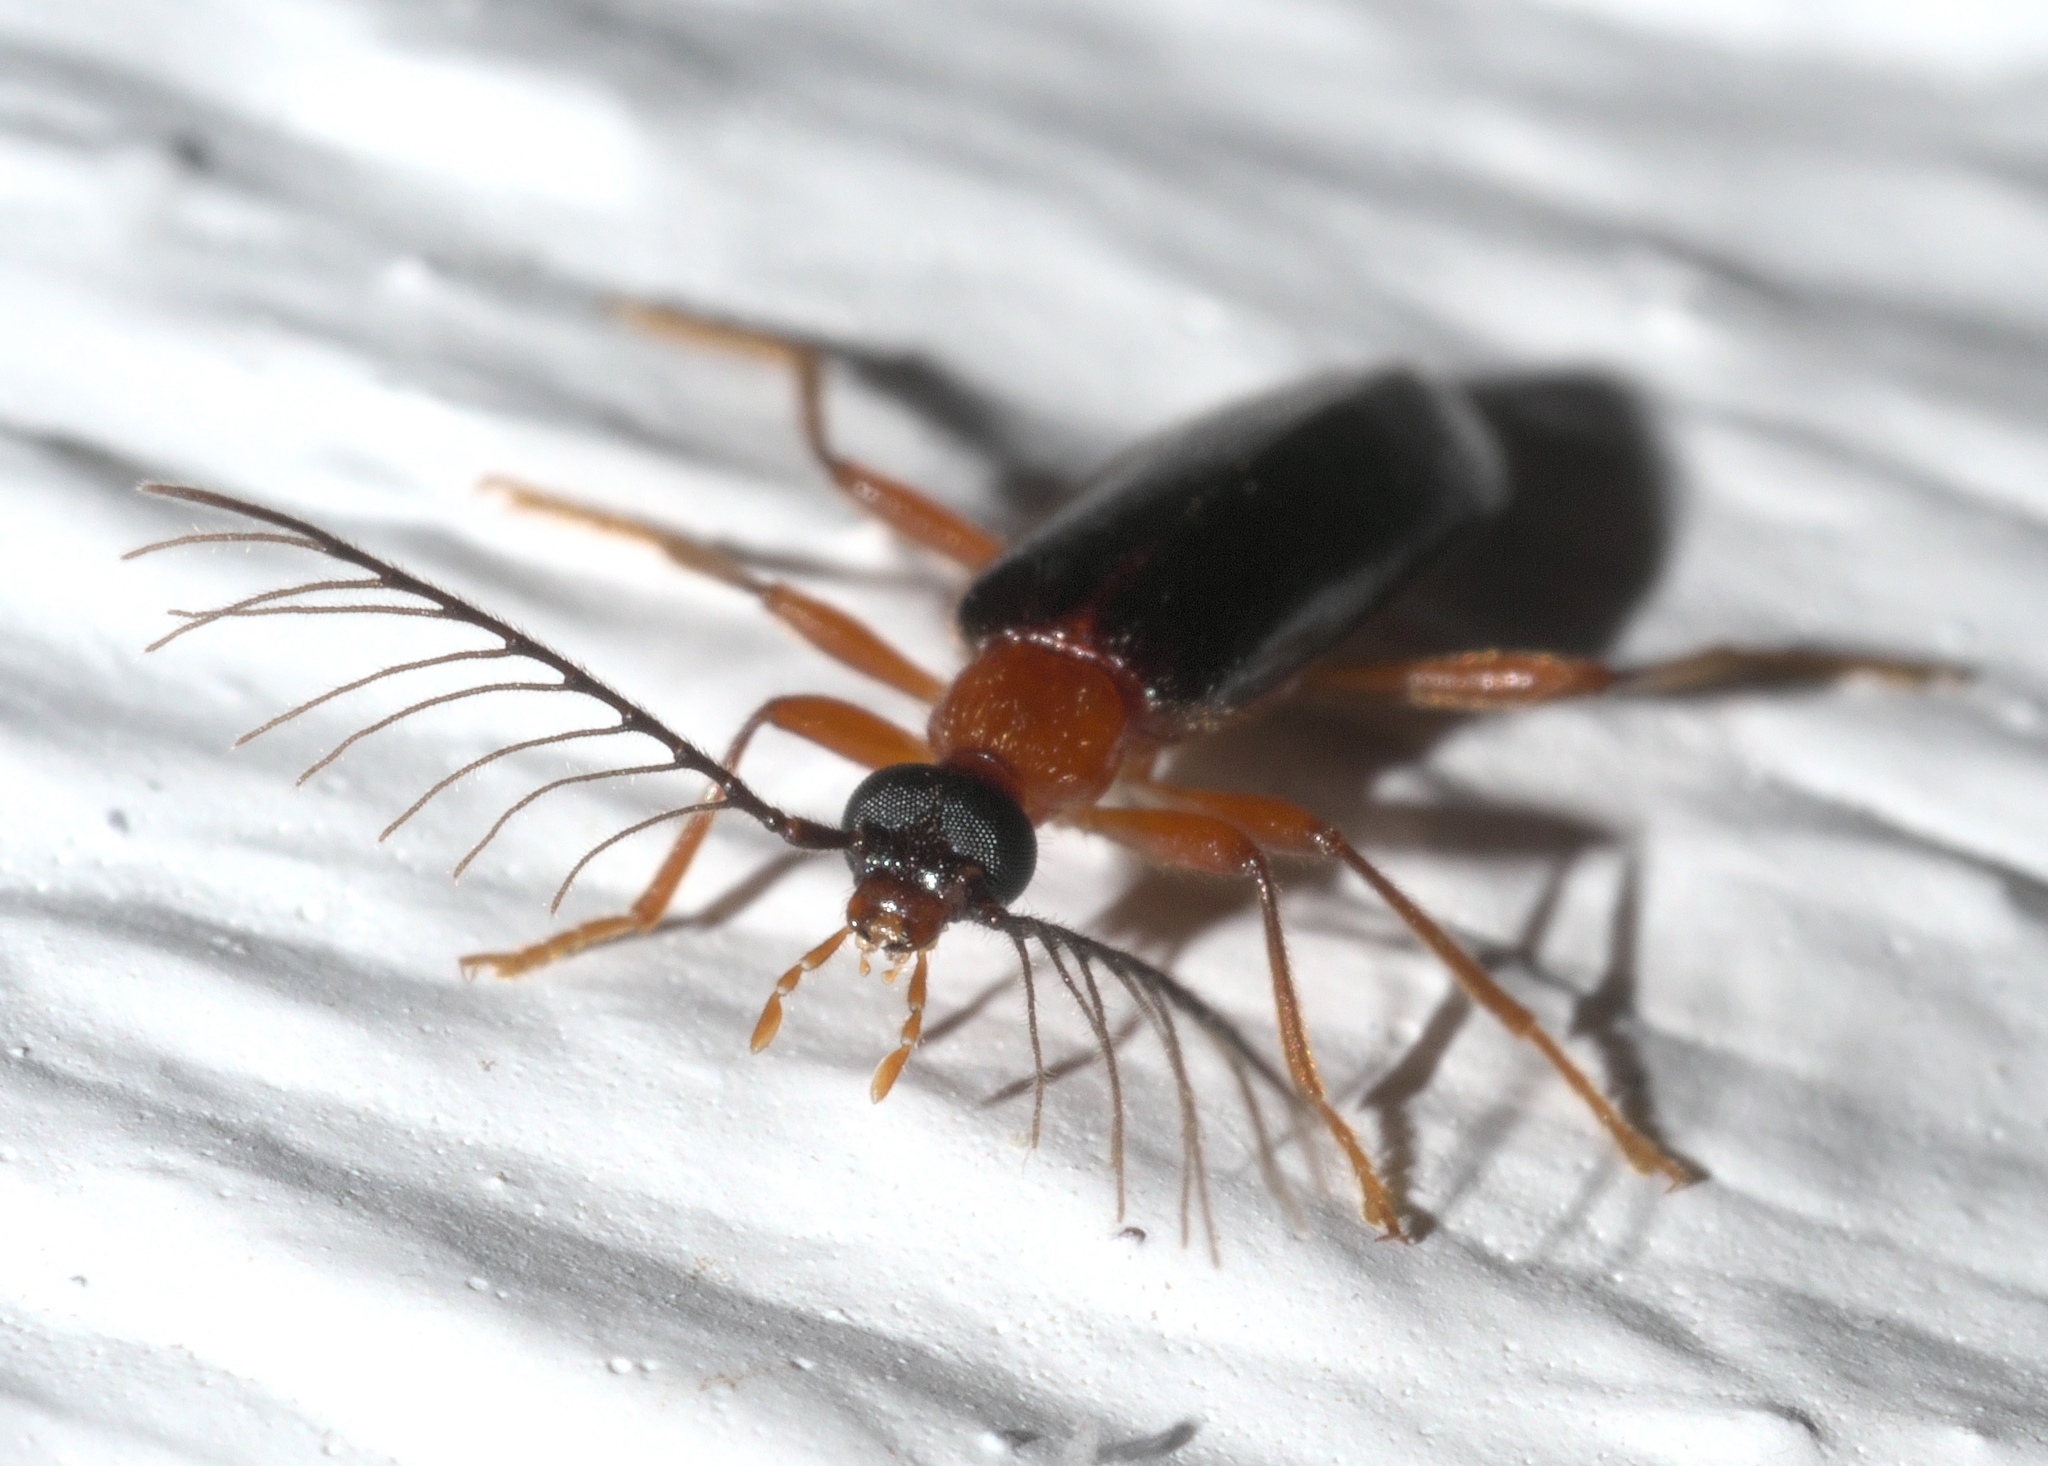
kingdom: Animalia
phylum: Arthropoda
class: Insecta
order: Coleoptera
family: Pyrochroidae
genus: Dendroides
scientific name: Dendroides canadensis
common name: Canada fire-colored beetle
